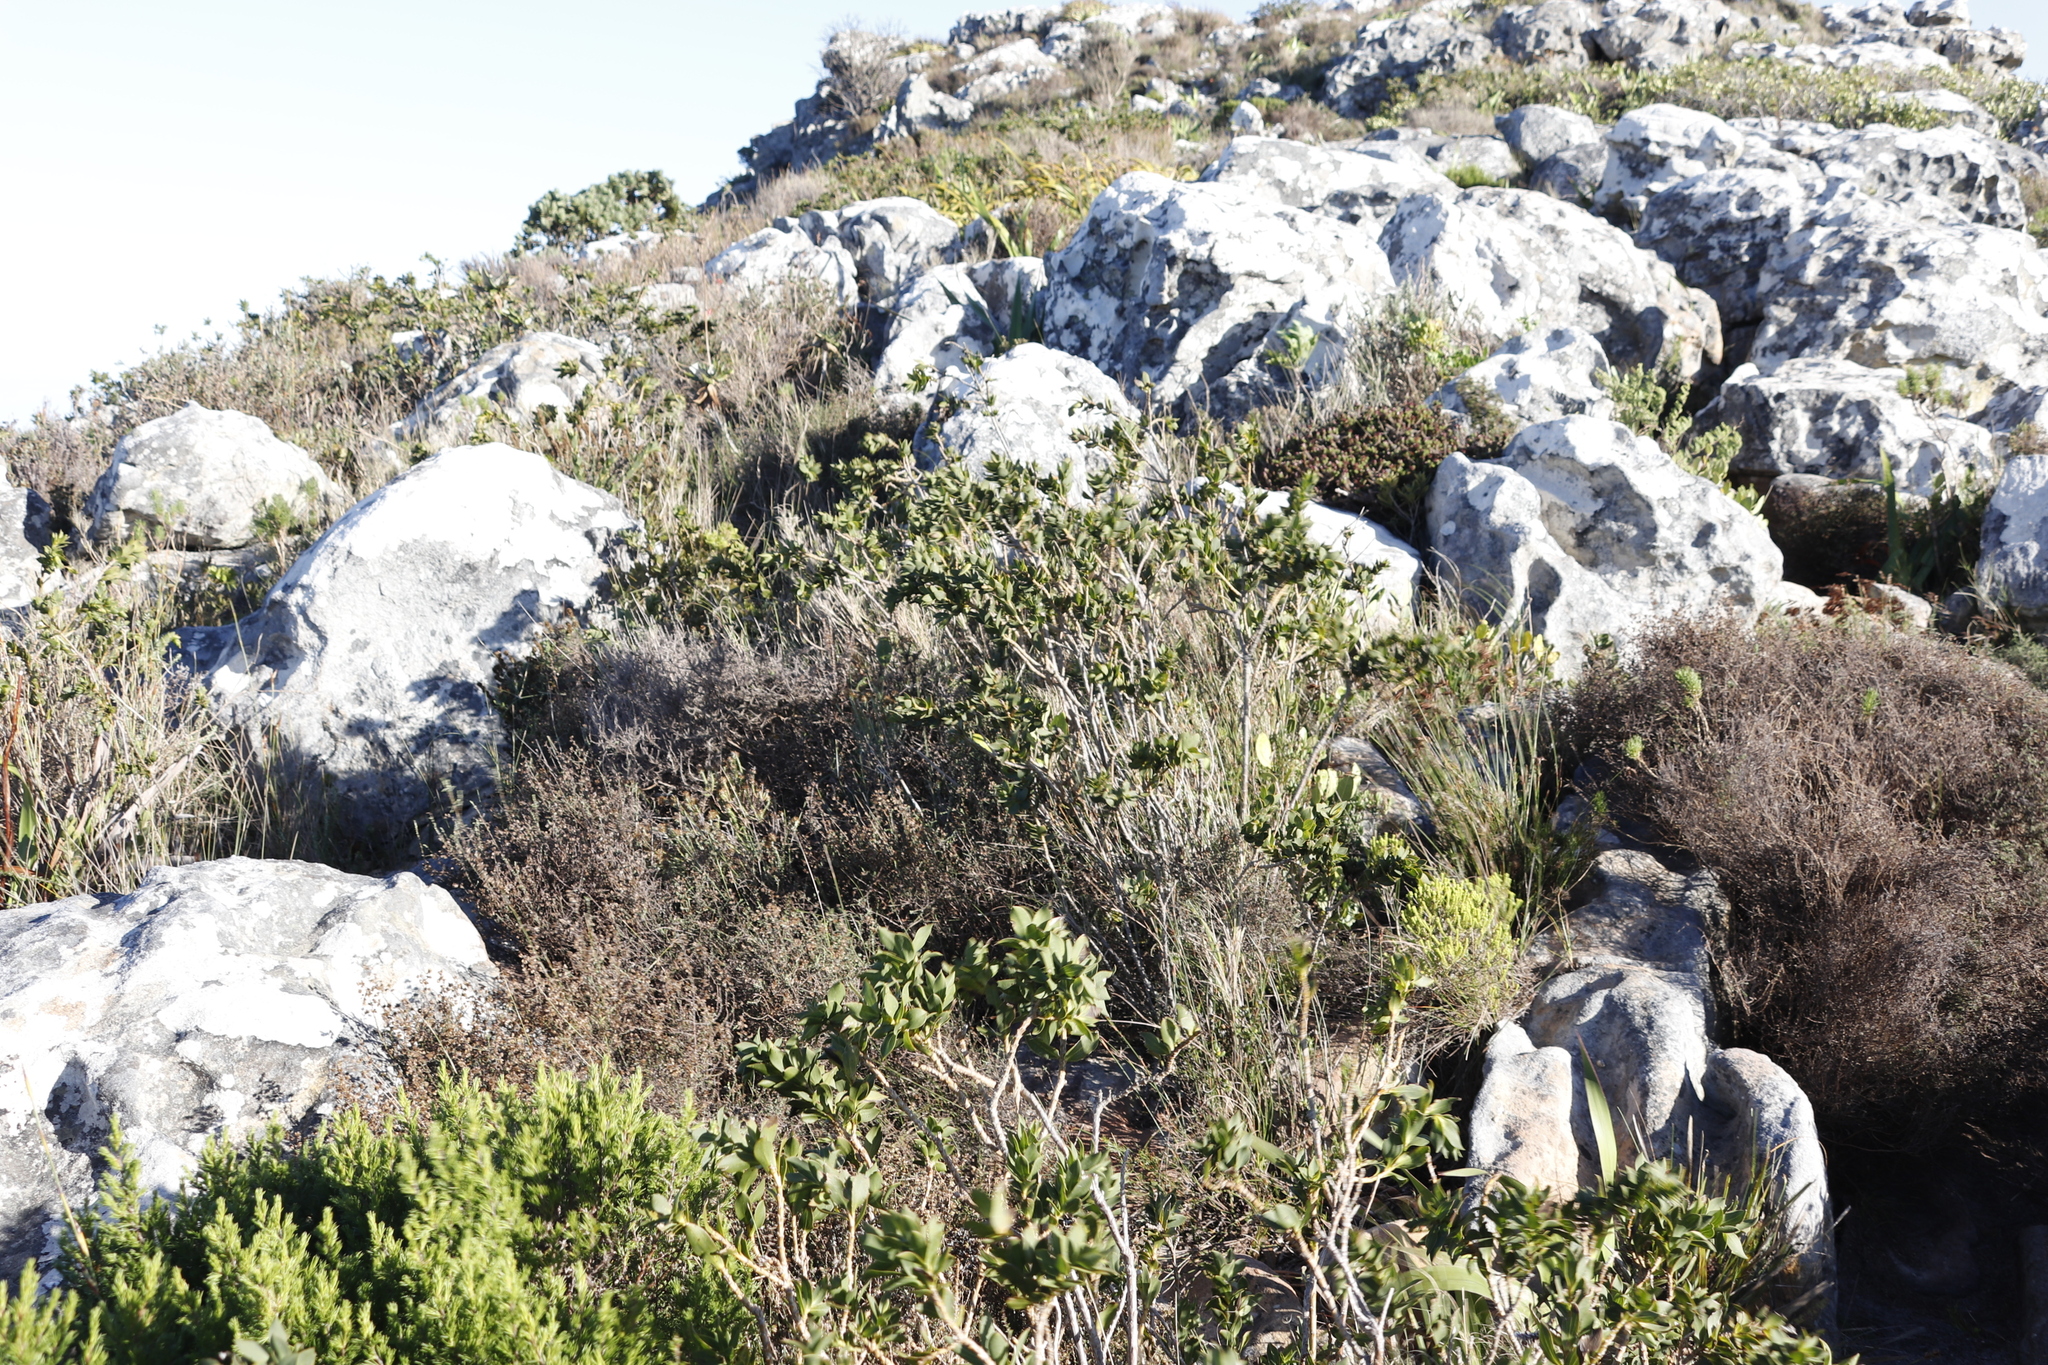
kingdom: Plantae
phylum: Tracheophyta
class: Magnoliopsida
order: Fabales
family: Fabaceae
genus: Liparia
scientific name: Liparia splendens
